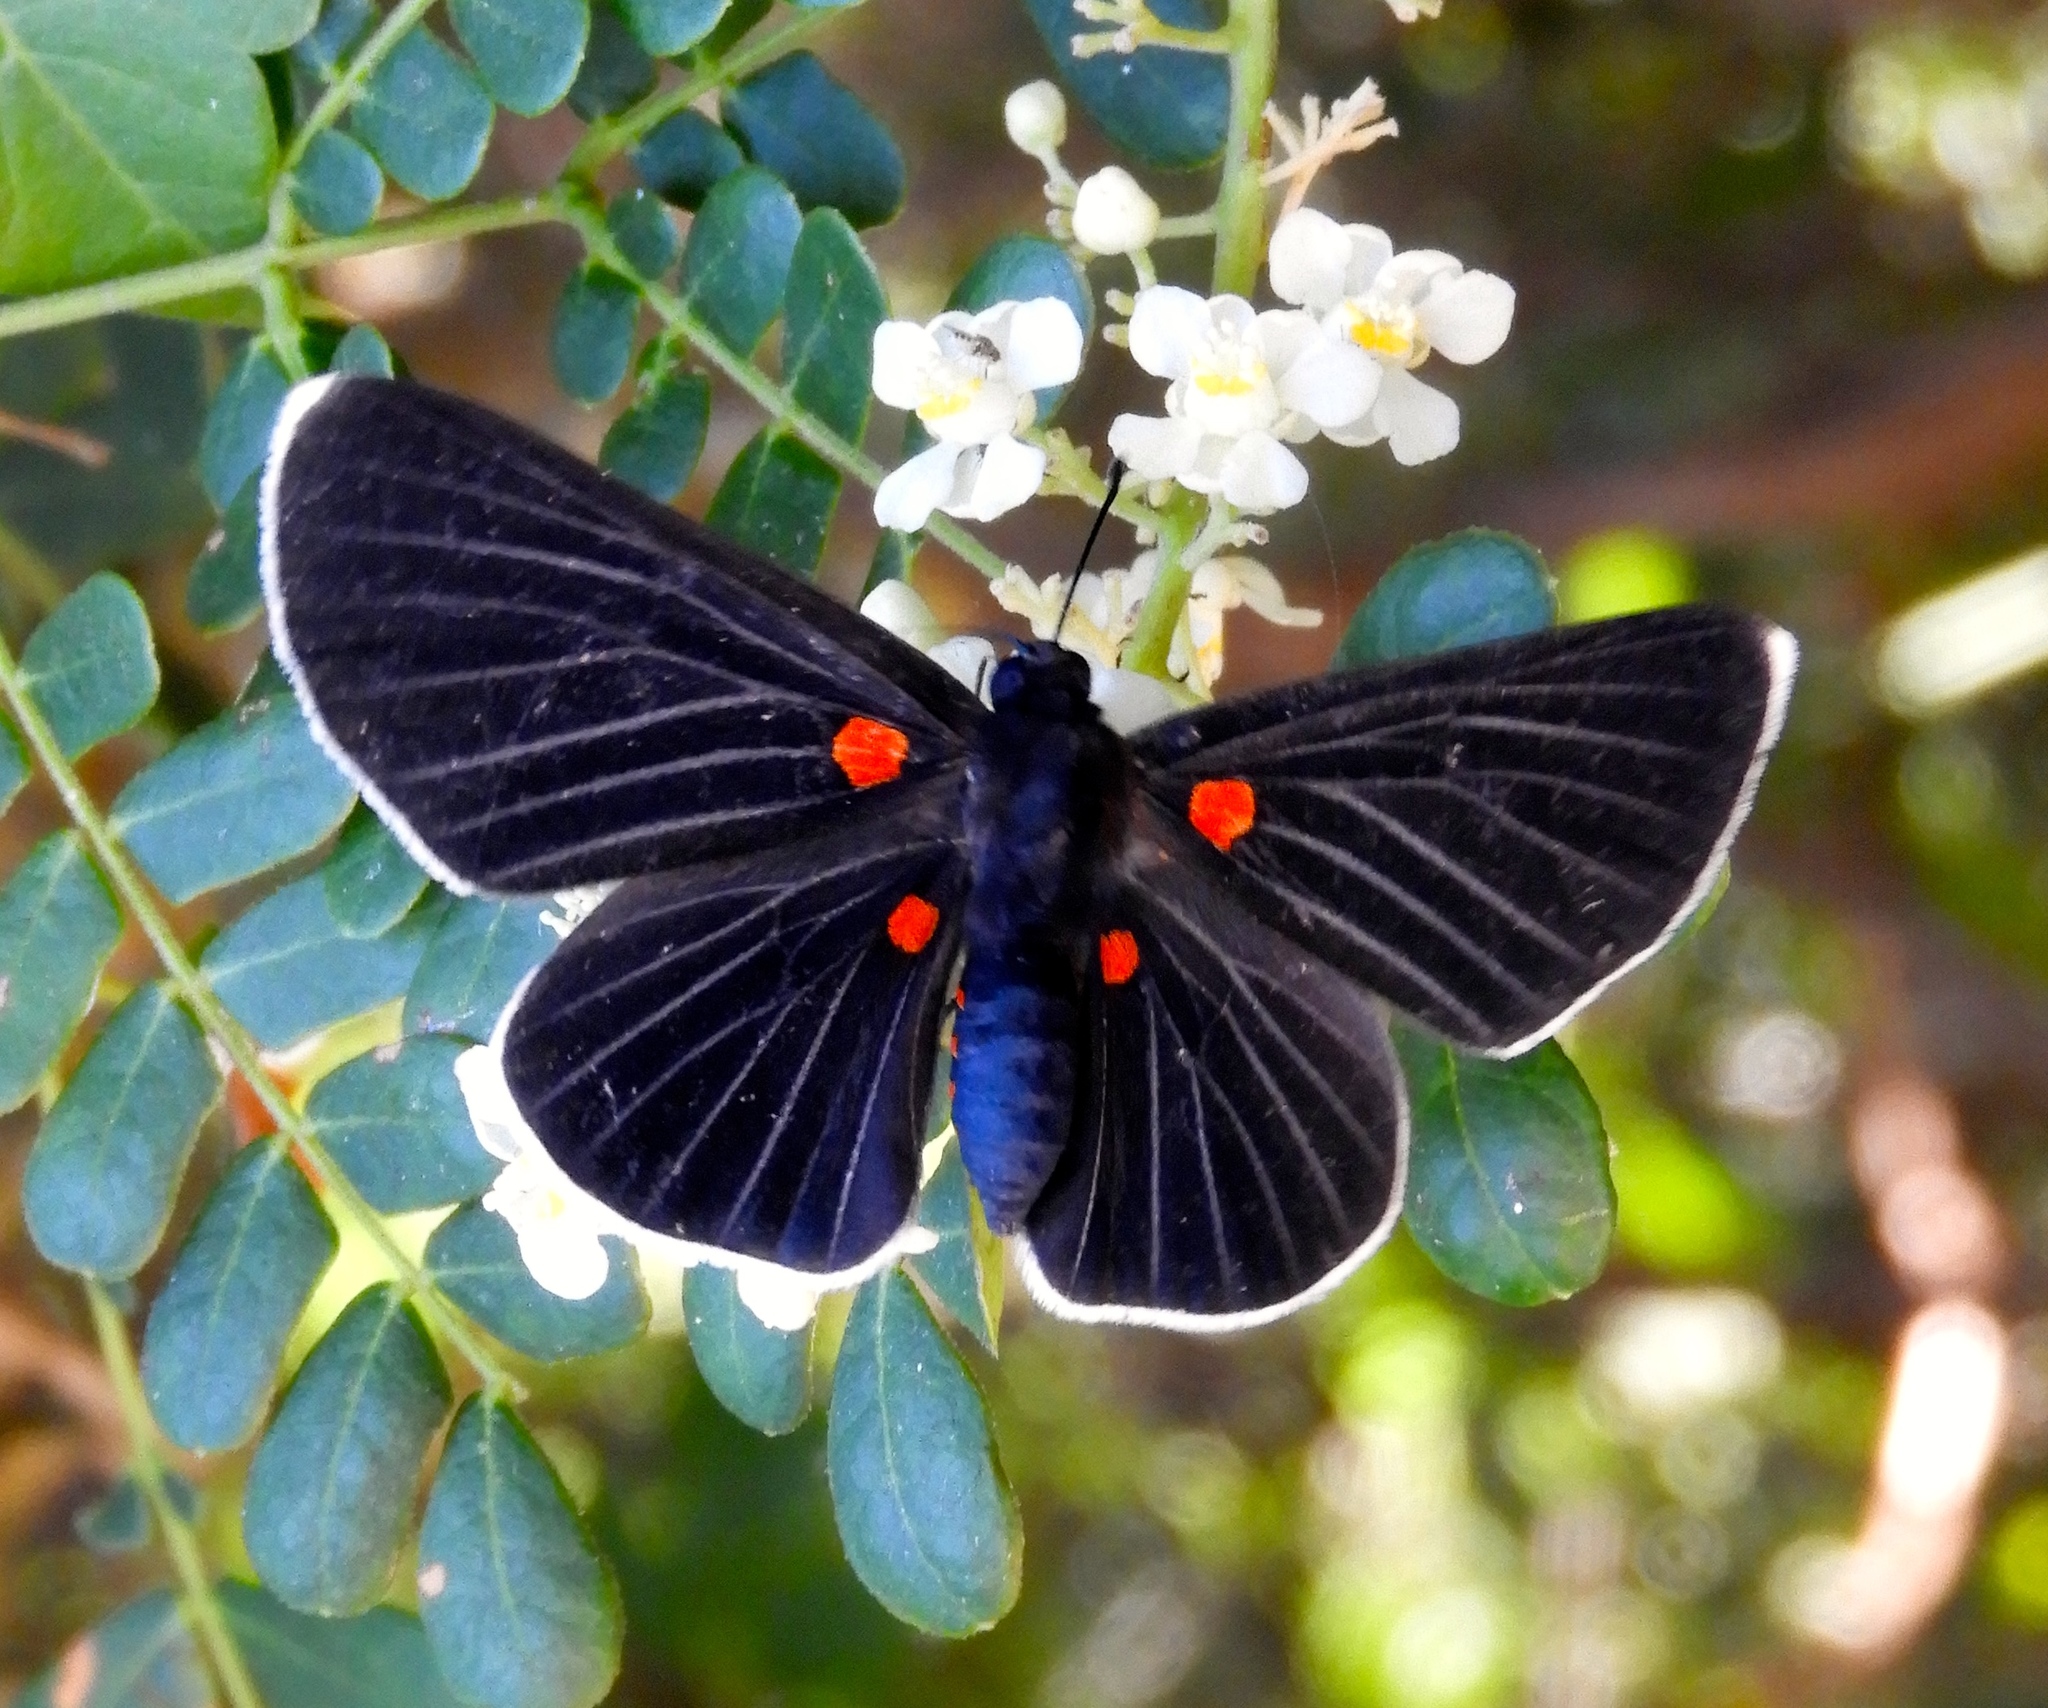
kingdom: Animalia
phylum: Arthropoda
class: Insecta
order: Lepidoptera
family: Lycaenidae
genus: Melanis
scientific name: Melanis
